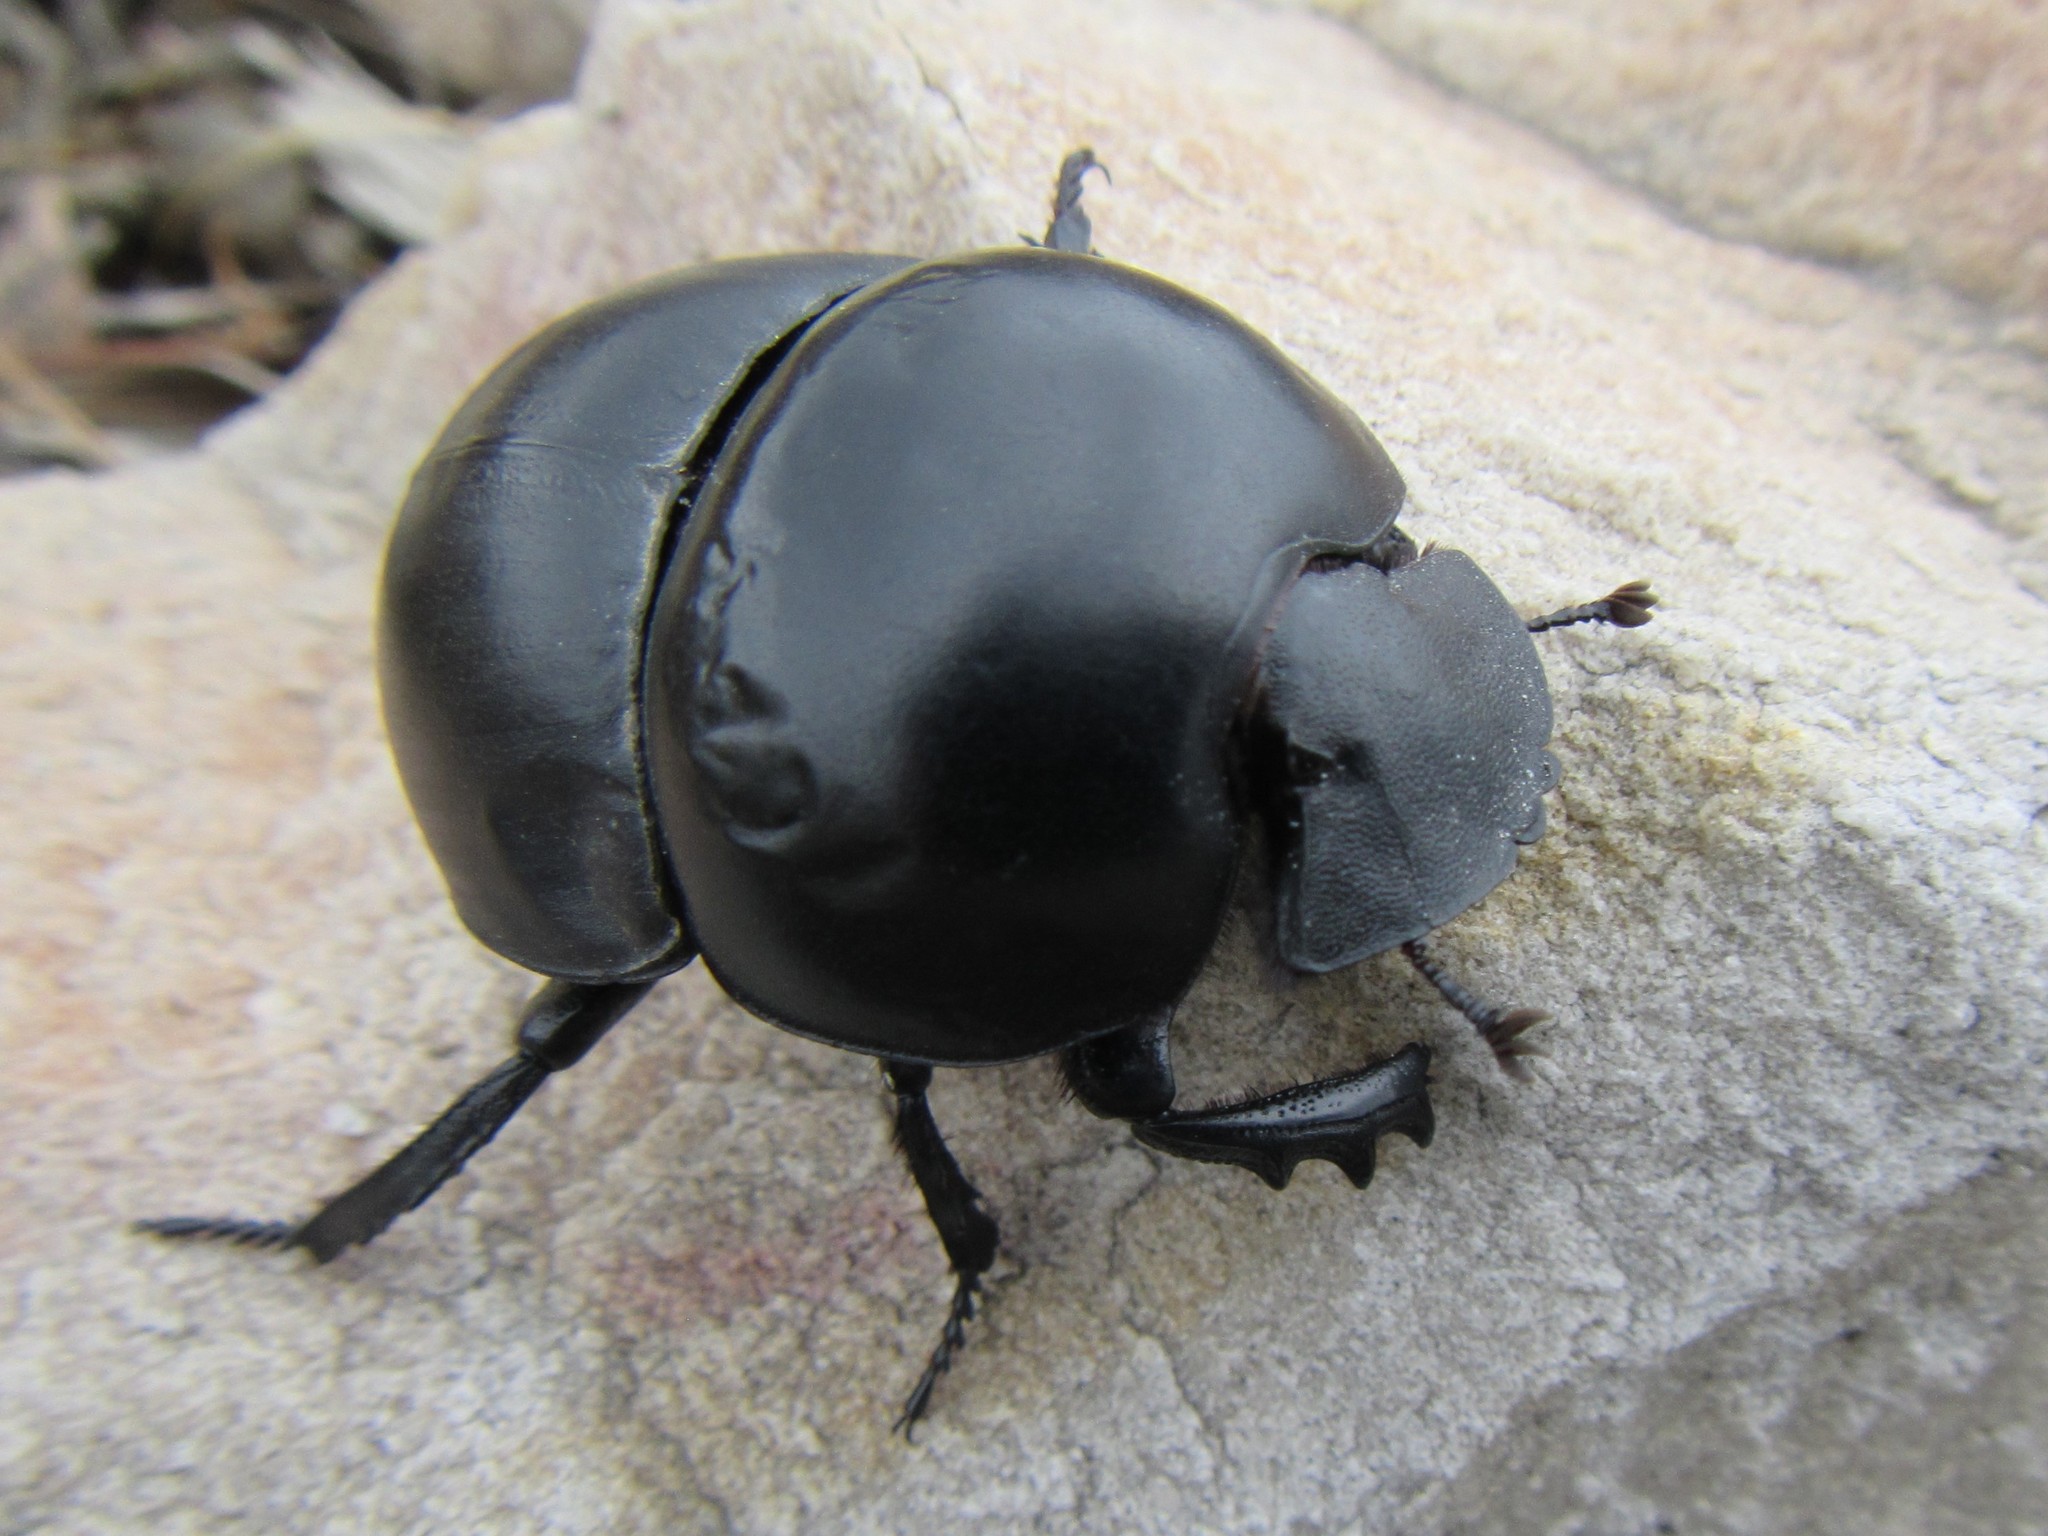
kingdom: Animalia
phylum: Arthropoda
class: Insecta
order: Coleoptera
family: Scarabaeidae
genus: Circellium
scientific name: Circellium bacchus
